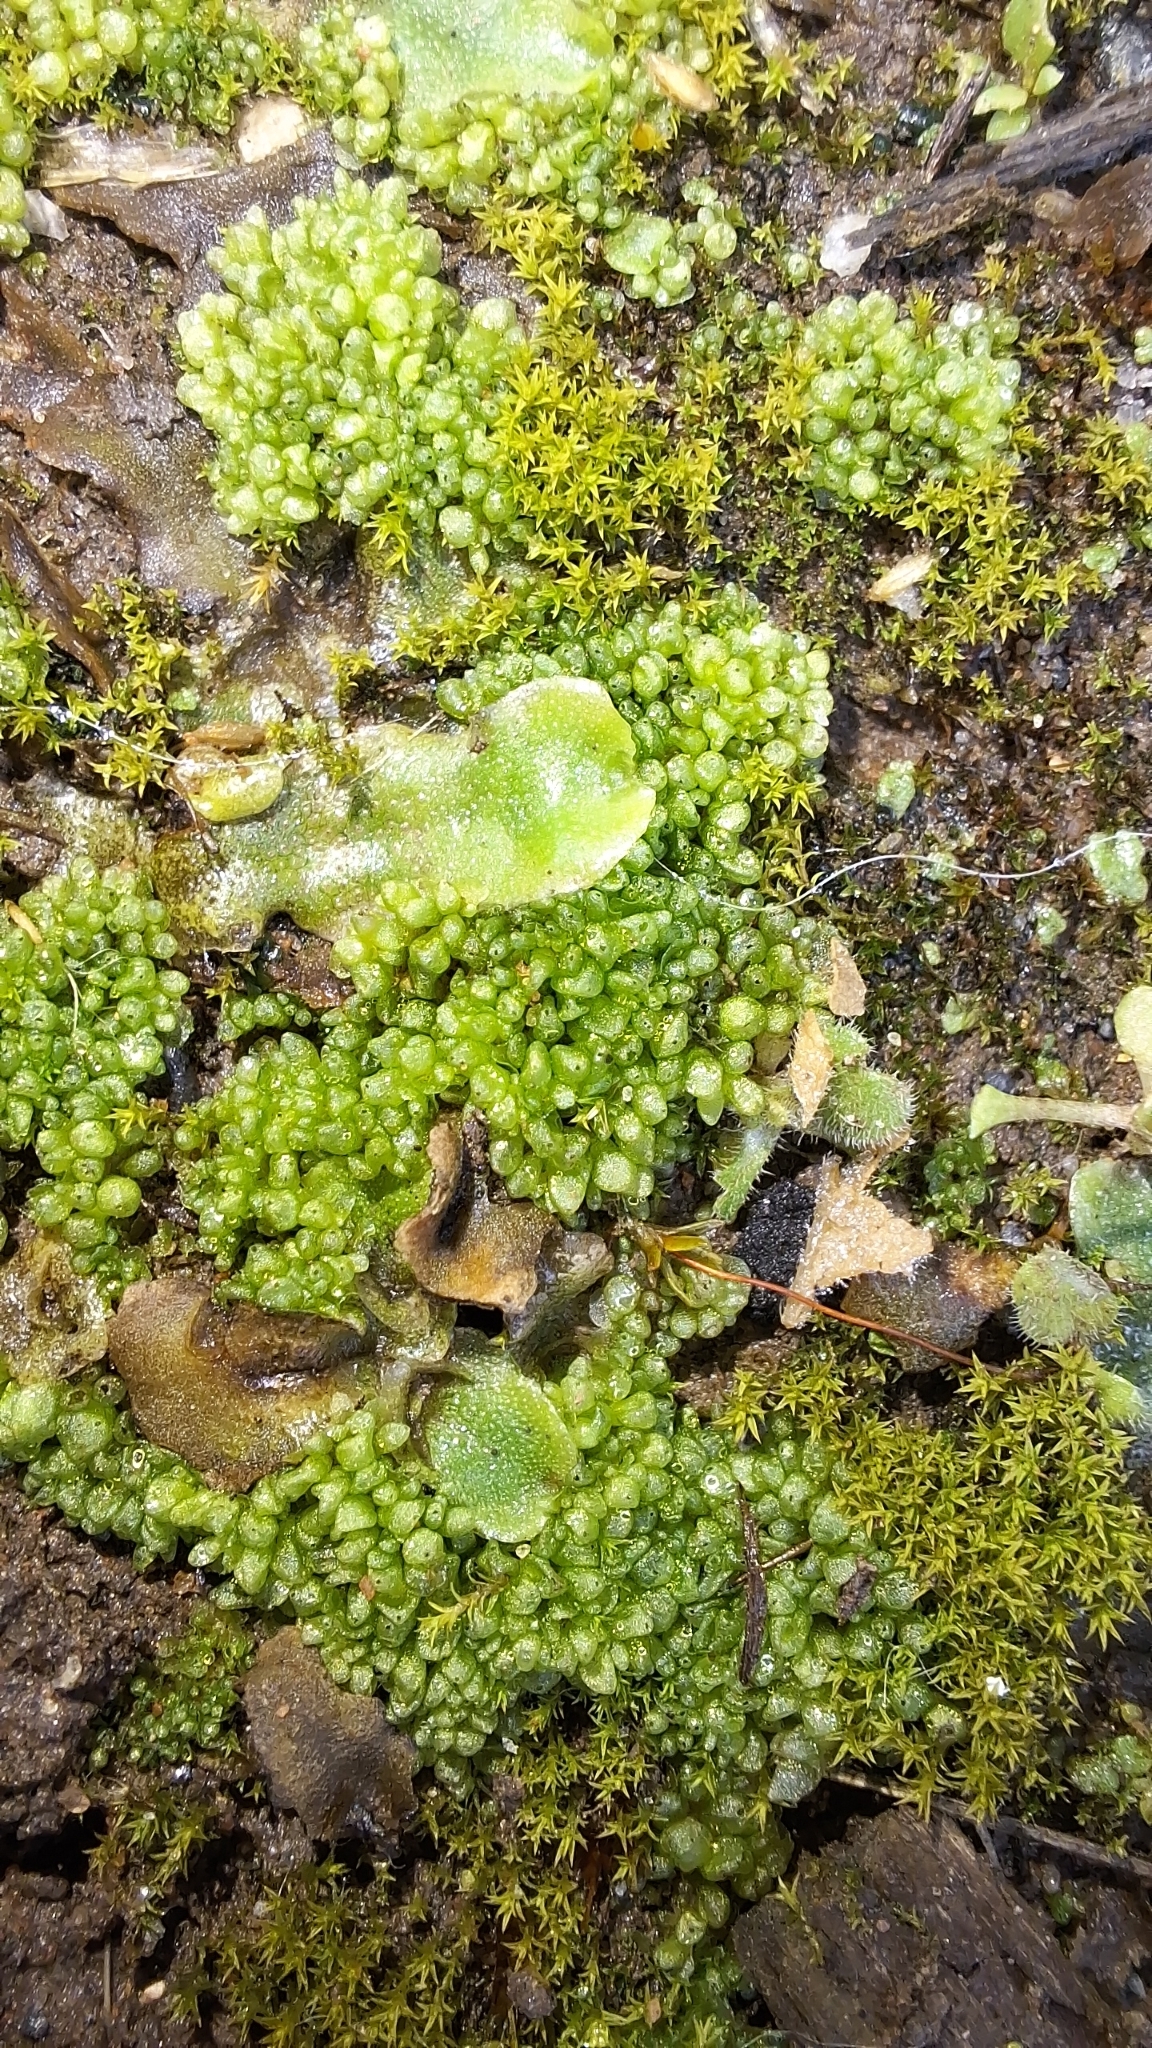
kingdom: Plantae
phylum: Marchantiophyta
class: Marchantiopsida
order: Sphaerocarpales
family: Sphaerocarpaceae
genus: Sphaerocarpos
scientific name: Sphaerocarpos texanus
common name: Texas balloonwort
